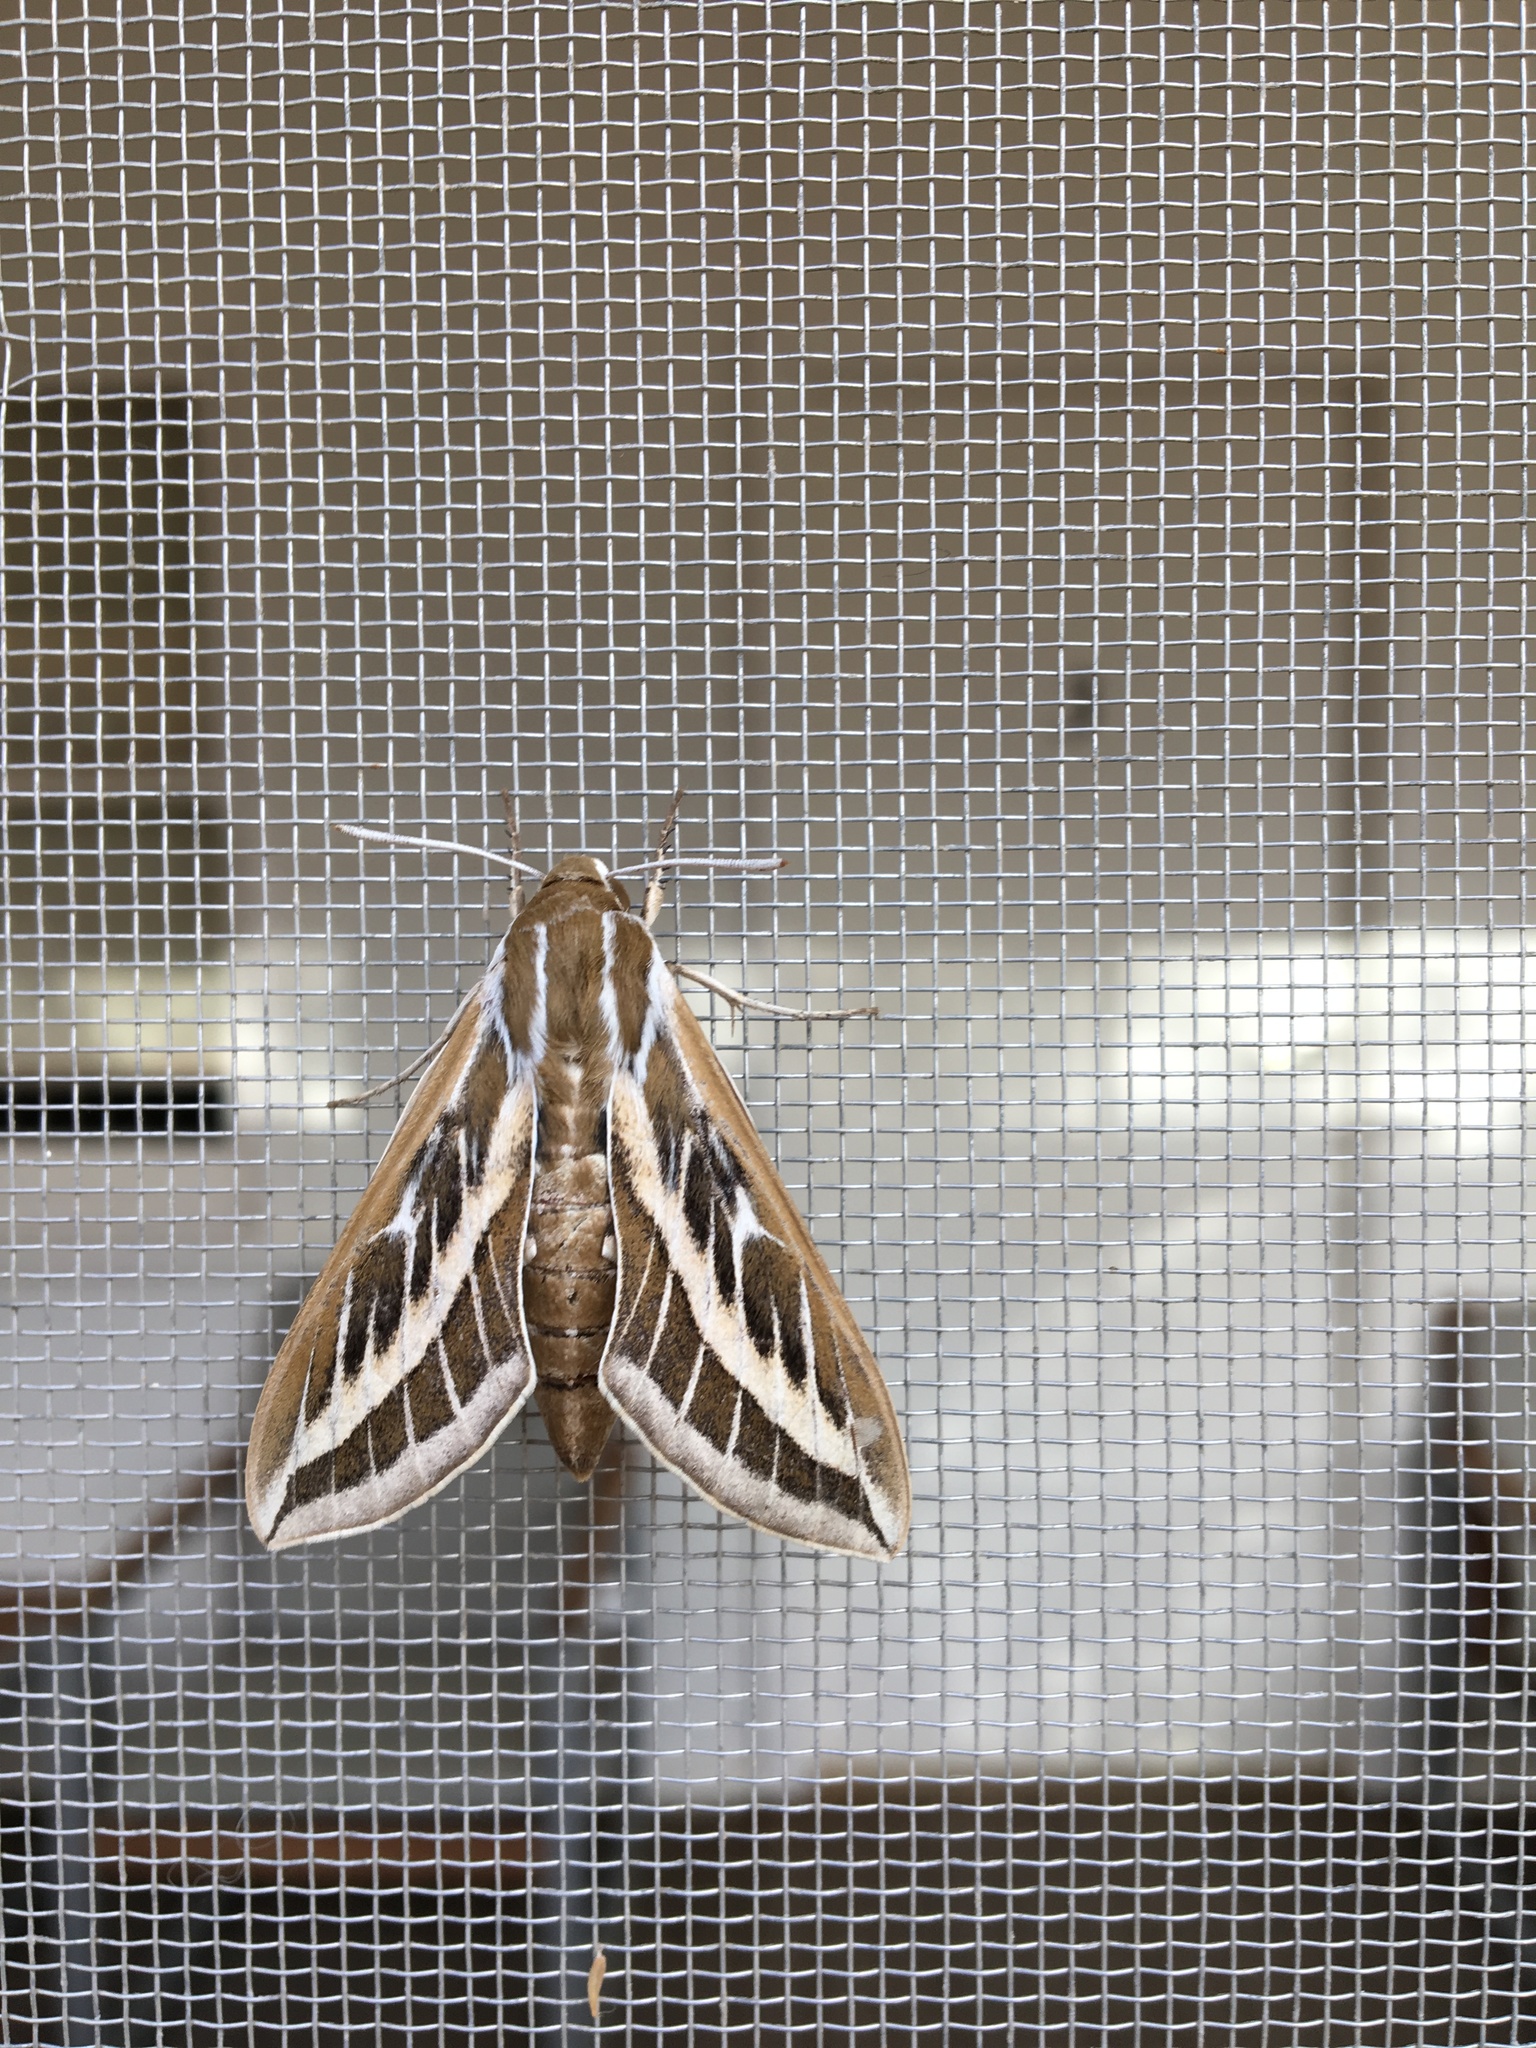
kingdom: Animalia
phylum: Arthropoda
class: Insecta
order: Lepidoptera
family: Sphingidae
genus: Hyles
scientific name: Hyles livornicoides
